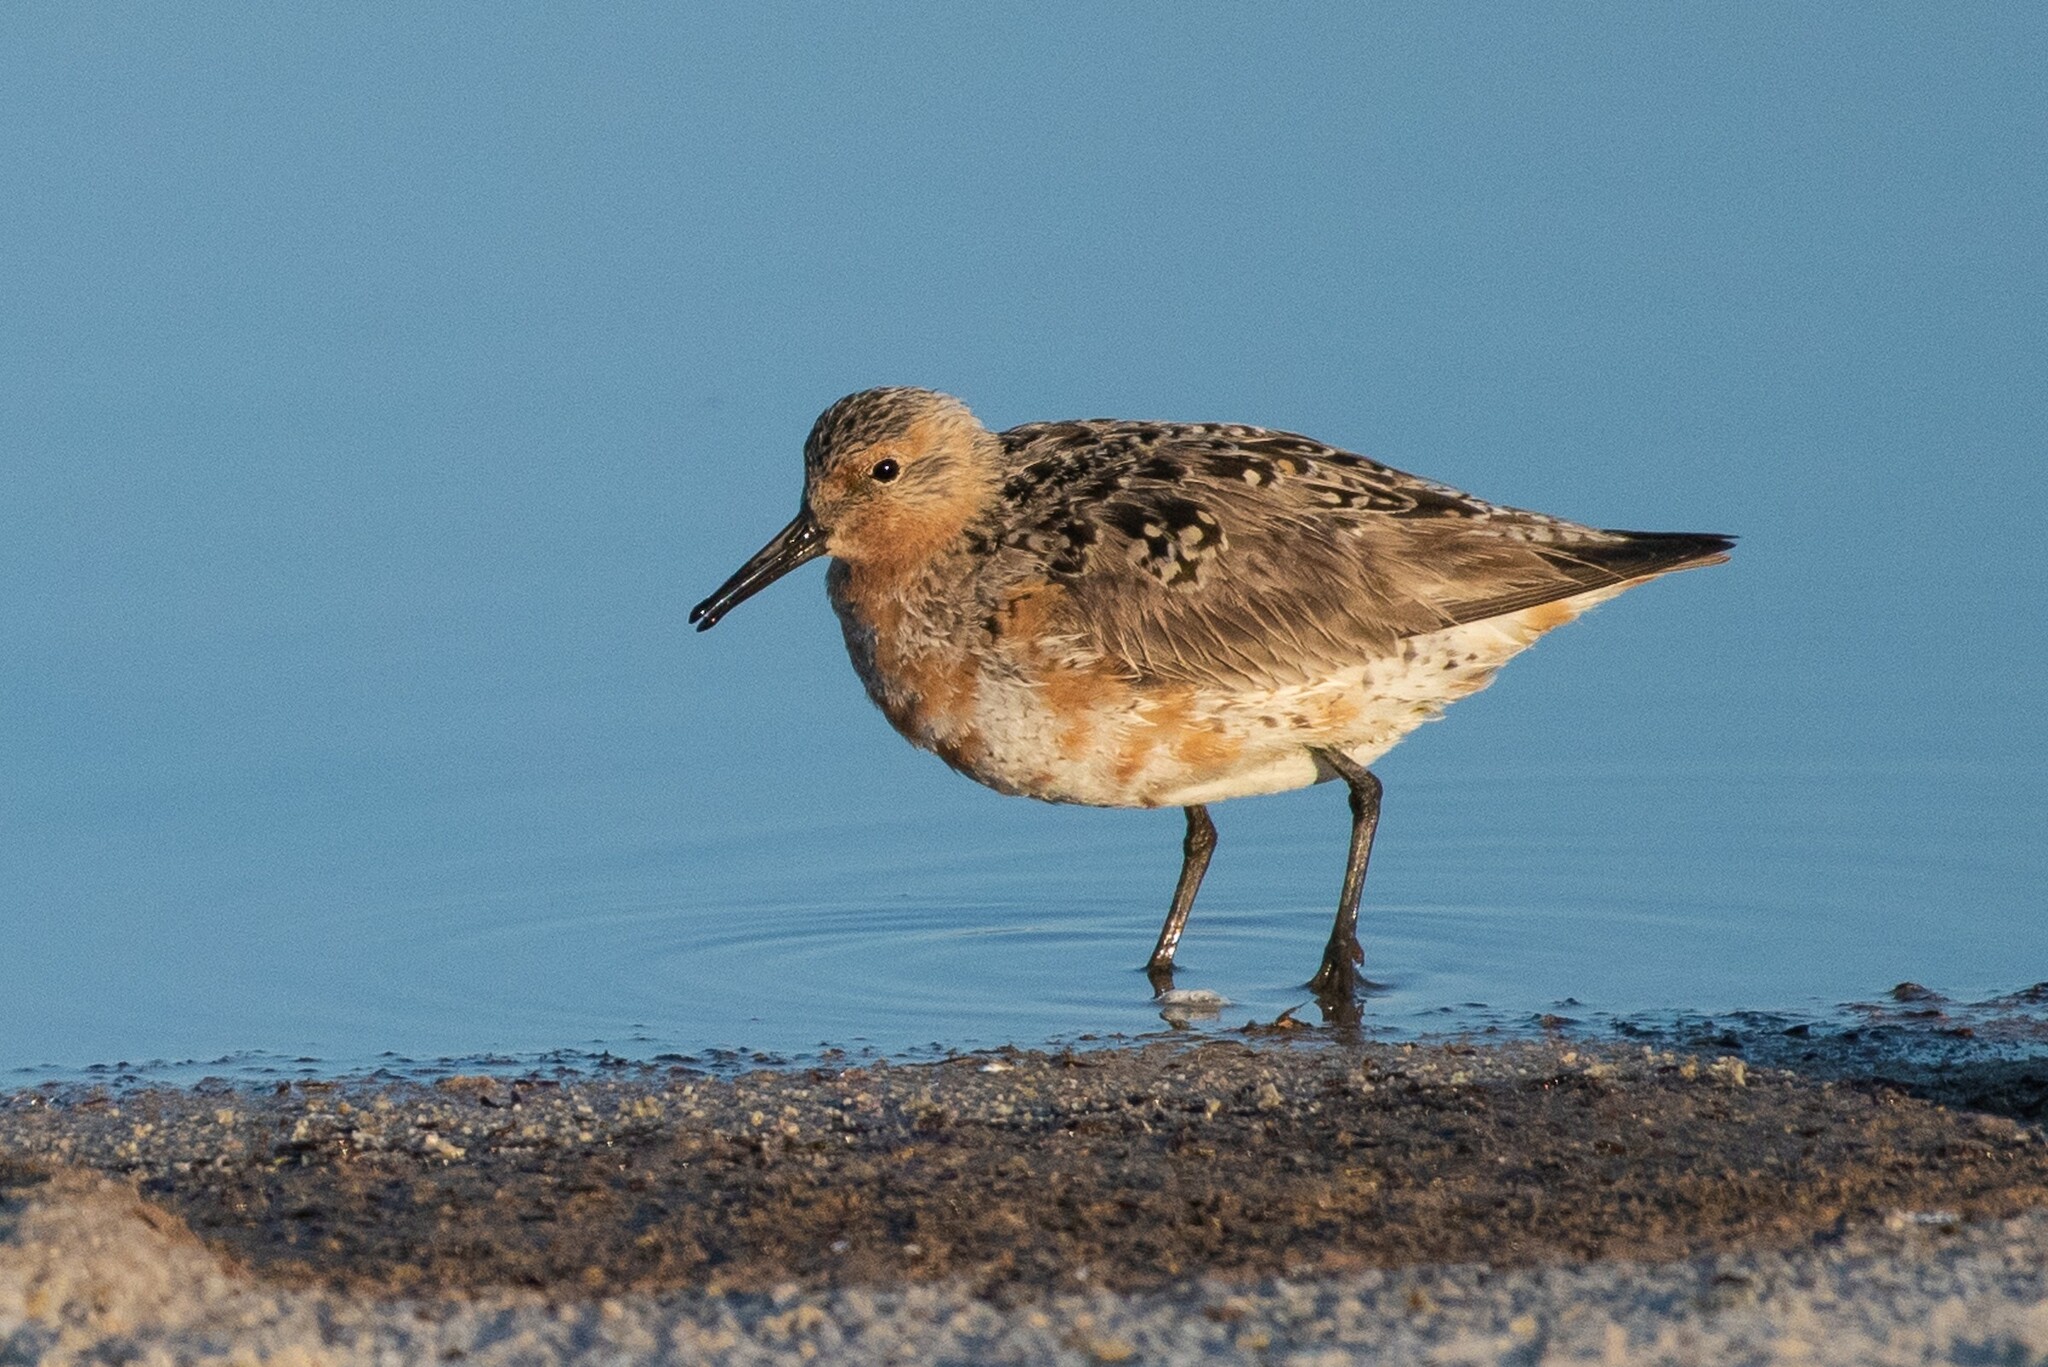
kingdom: Animalia
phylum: Chordata
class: Aves
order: Charadriiformes
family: Scolopacidae
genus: Calidris
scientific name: Calidris canutus
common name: Red knot
